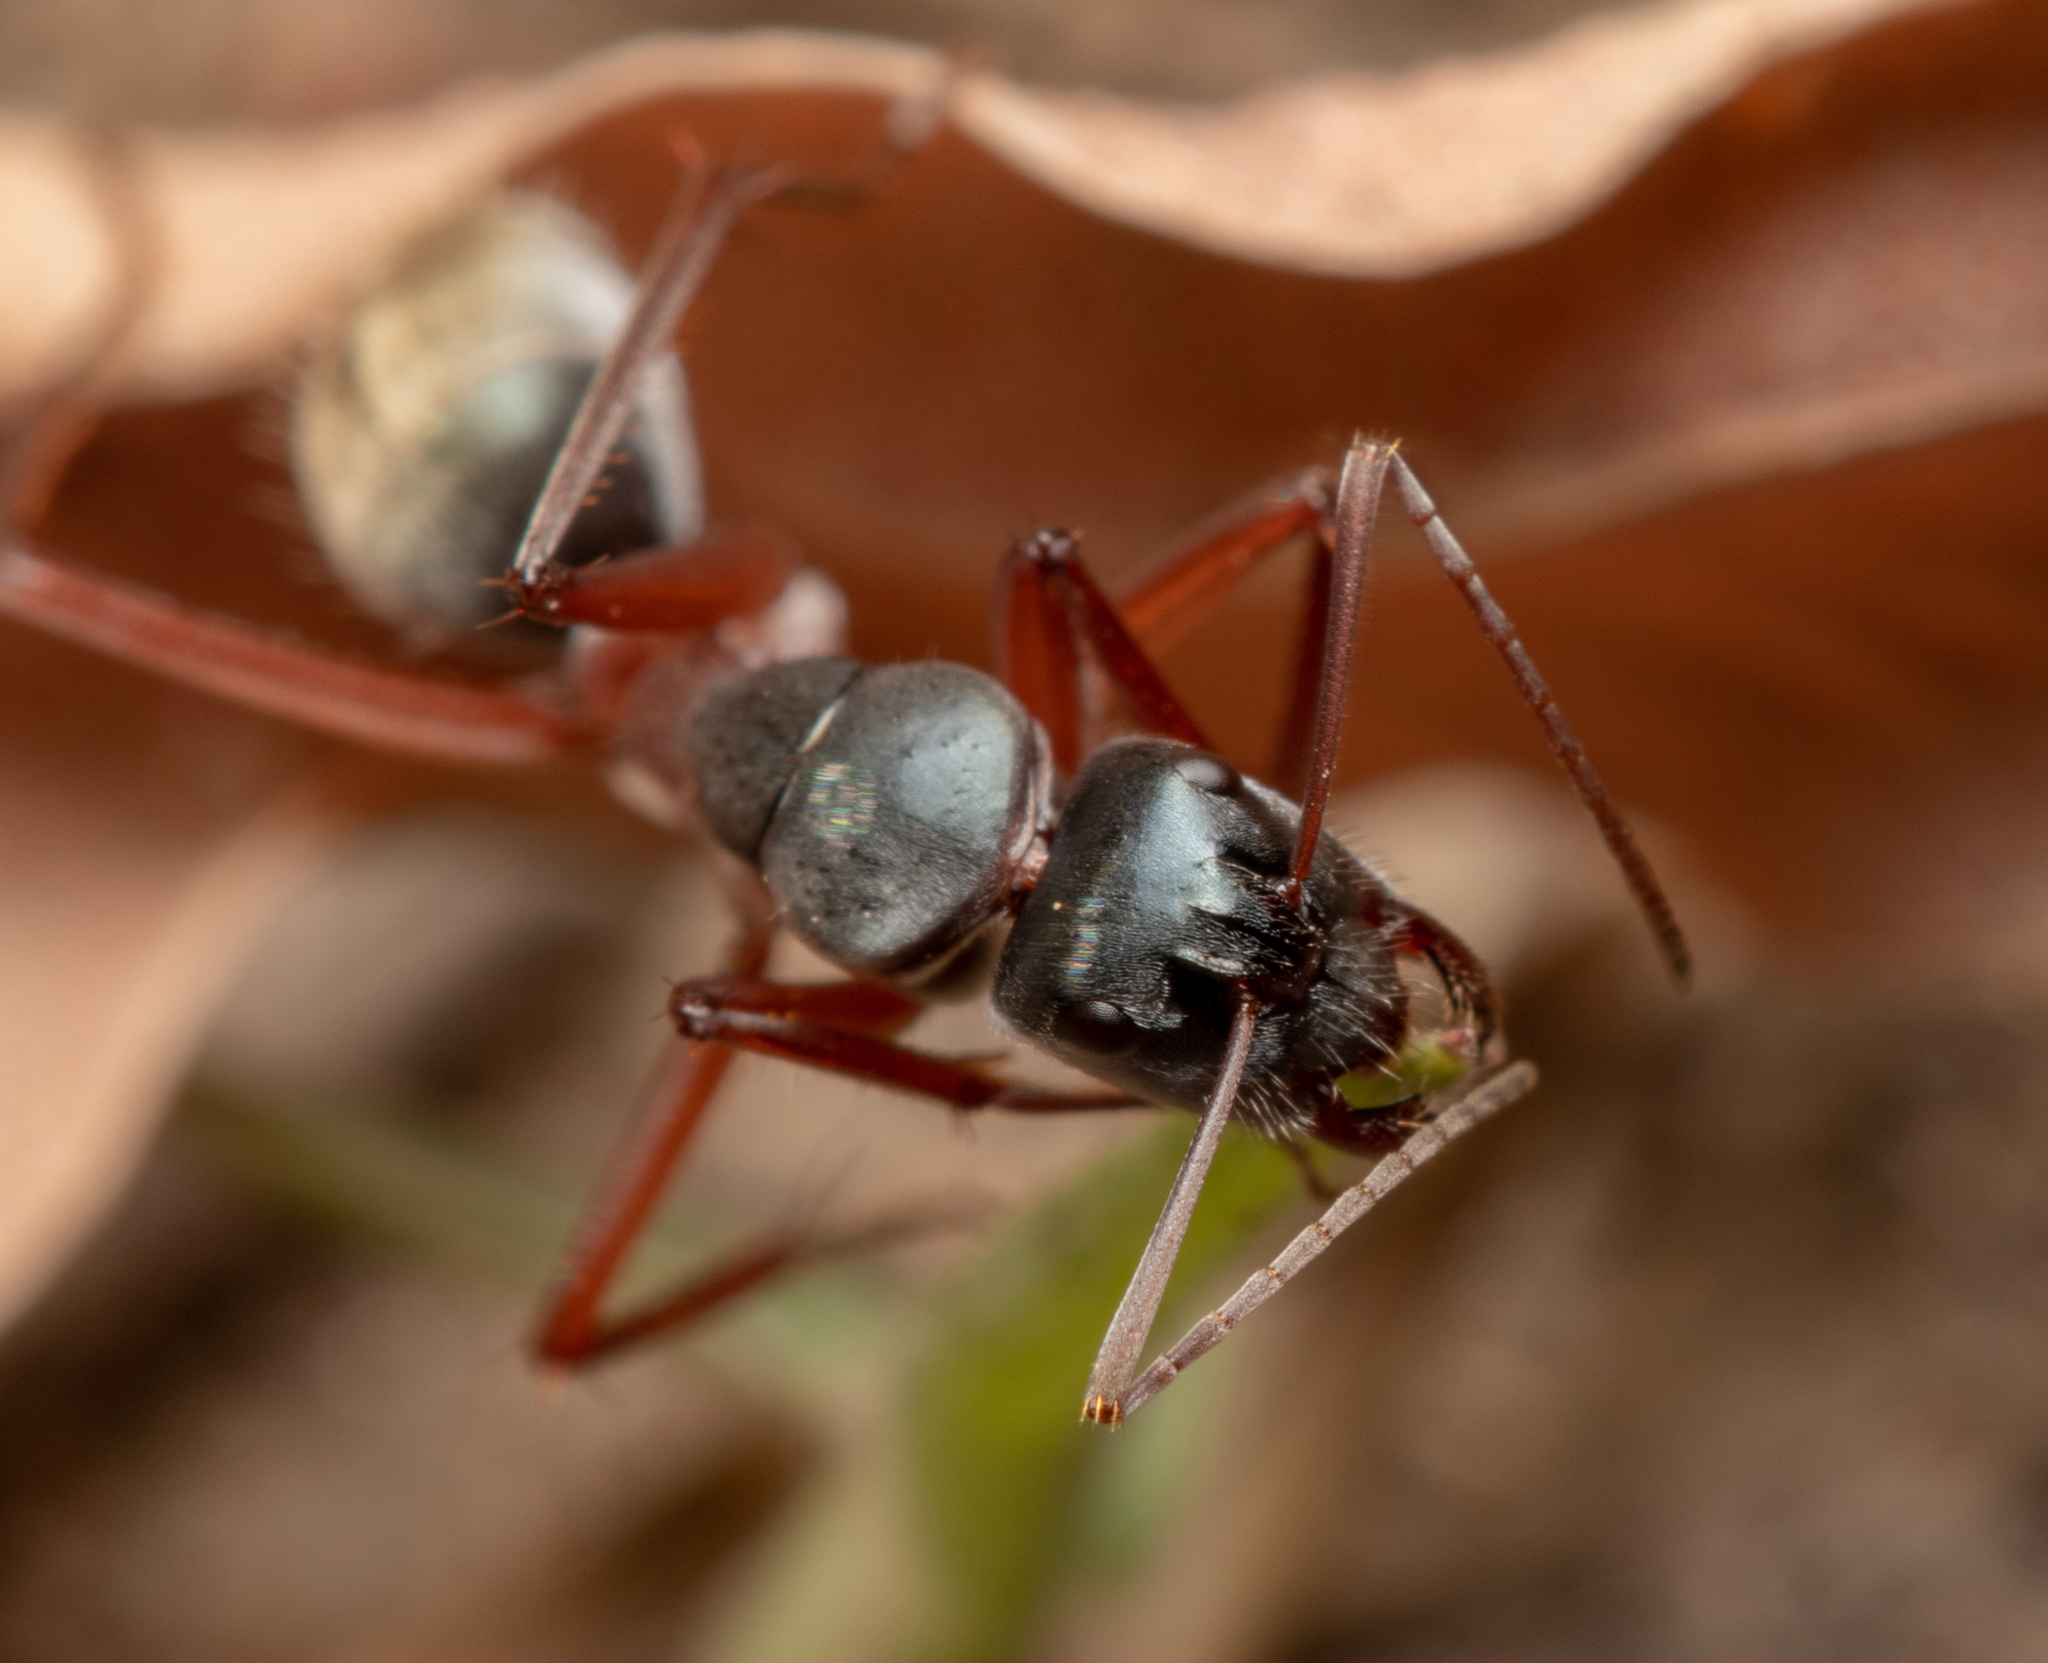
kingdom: Animalia
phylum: Arthropoda
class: Insecta
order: Hymenoptera
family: Formicidae
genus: Camponotus
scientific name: Camponotus dromas
